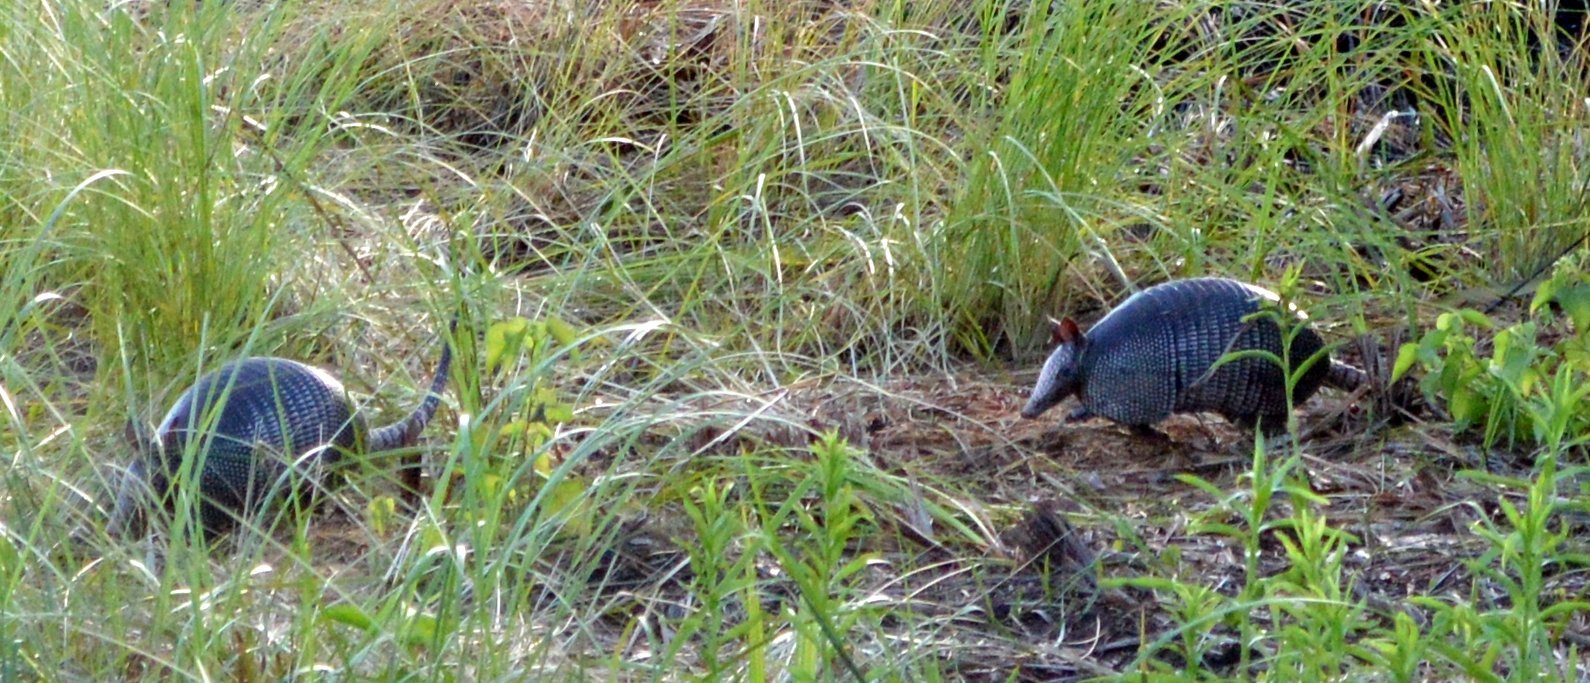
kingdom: Animalia
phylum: Chordata
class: Mammalia
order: Cingulata
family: Dasypodidae
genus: Dasypus
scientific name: Dasypus novemcinctus
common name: Nine-banded armadillo
